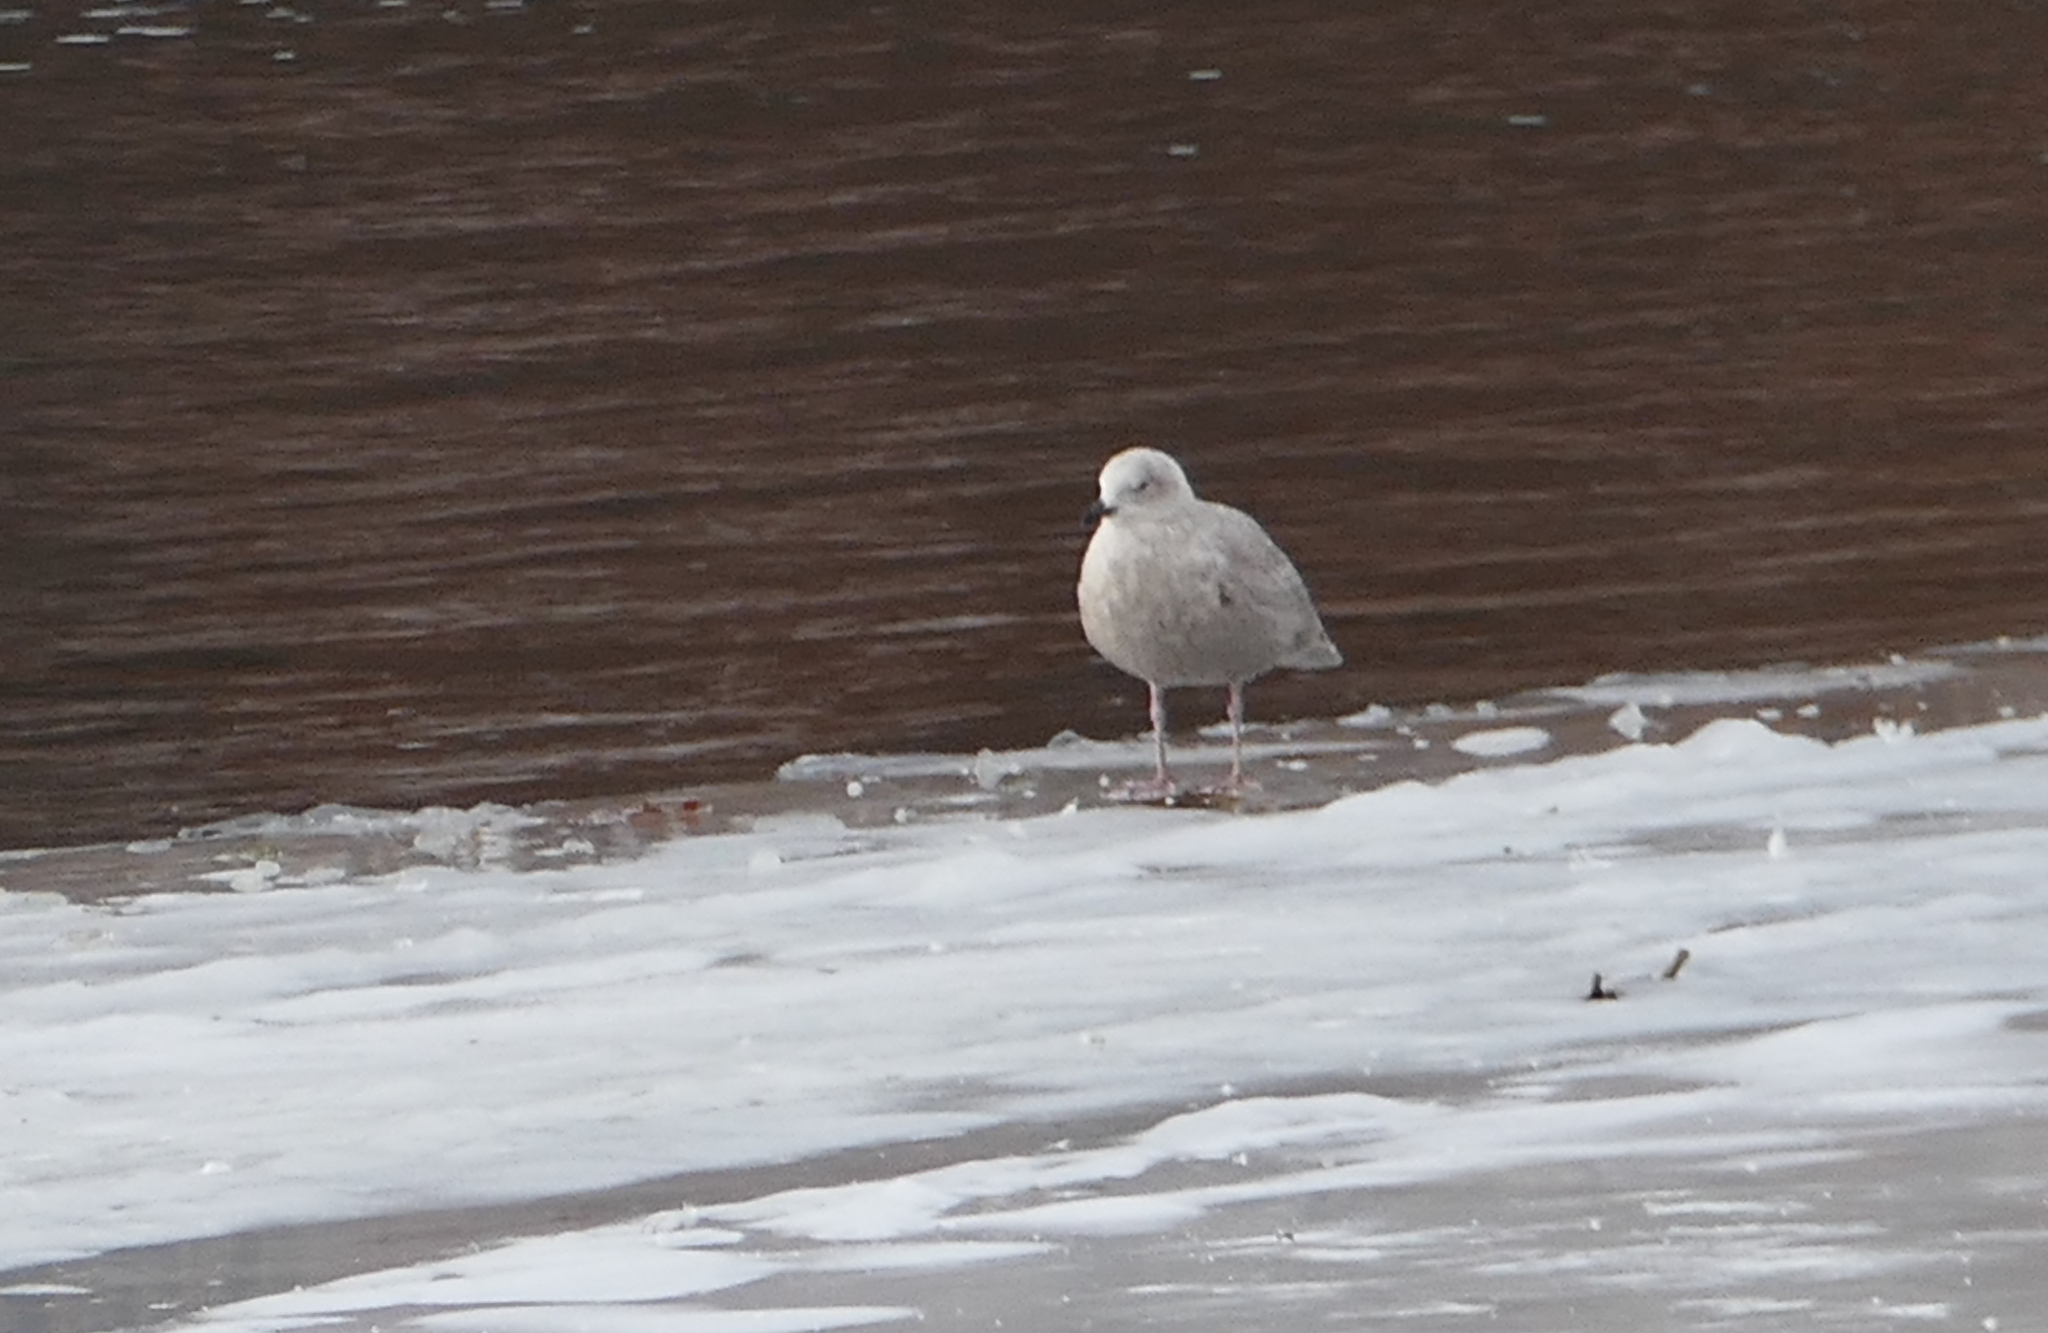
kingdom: Animalia
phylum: Chordata
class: Aves
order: Charadriiformes
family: Laridae
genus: Larus
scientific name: Larus glaucoides
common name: Iceland gull
